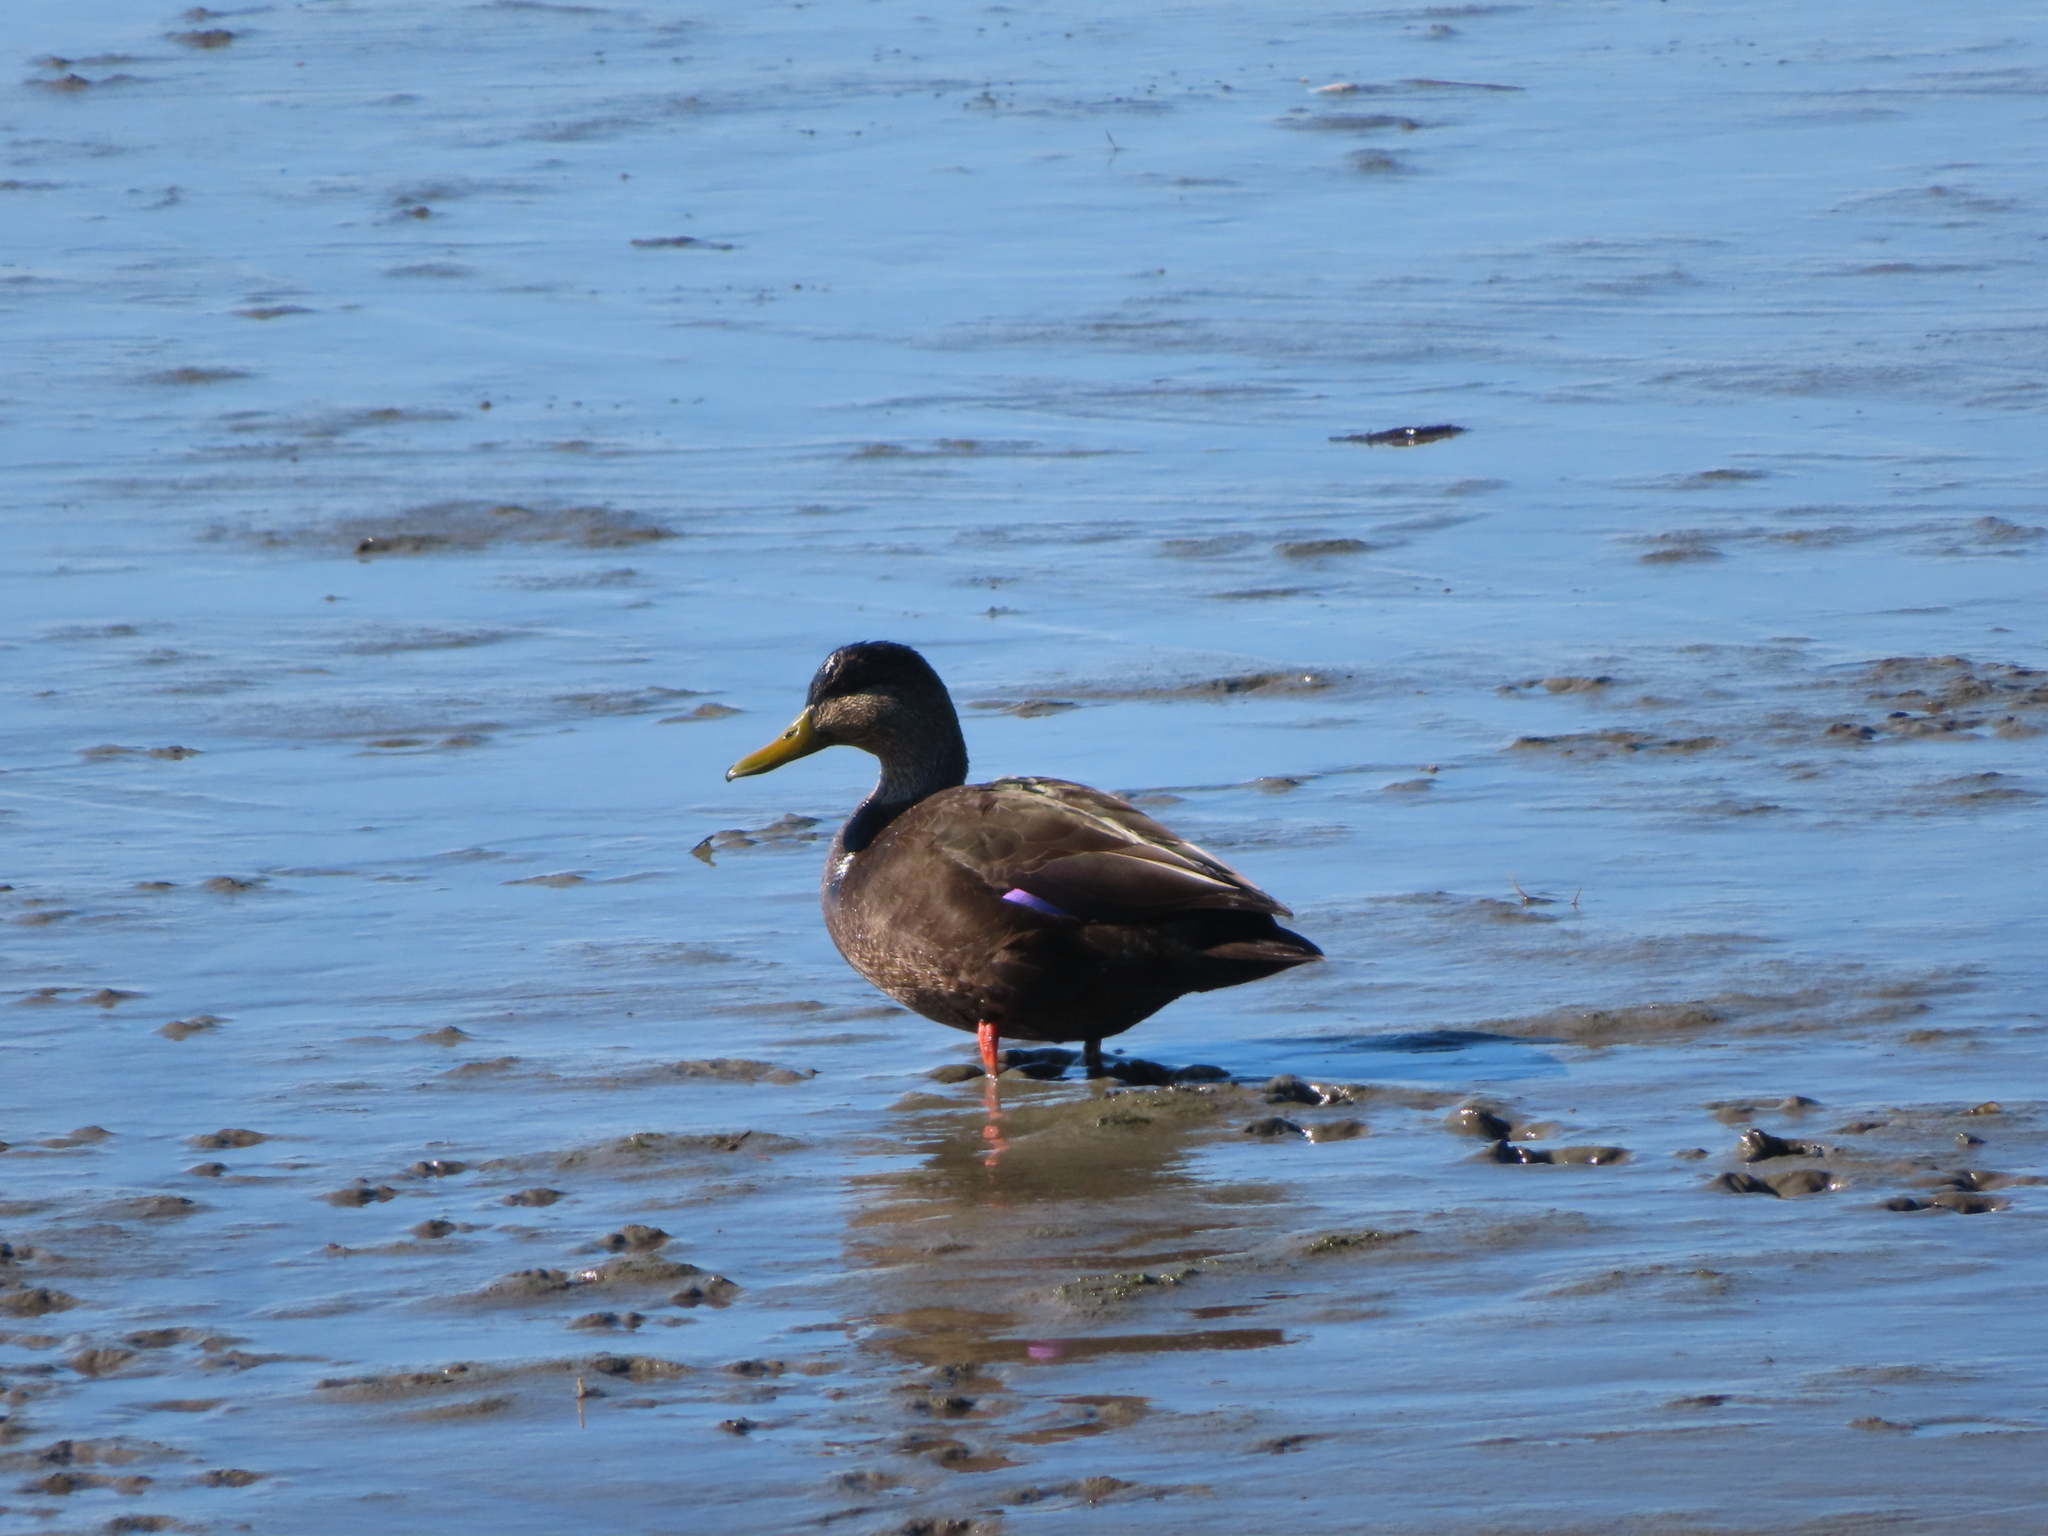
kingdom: Animalia
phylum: Chordata
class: Aves
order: Anseriformes
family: Anatidae
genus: Anas
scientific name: Anas rubripes
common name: American black duck
